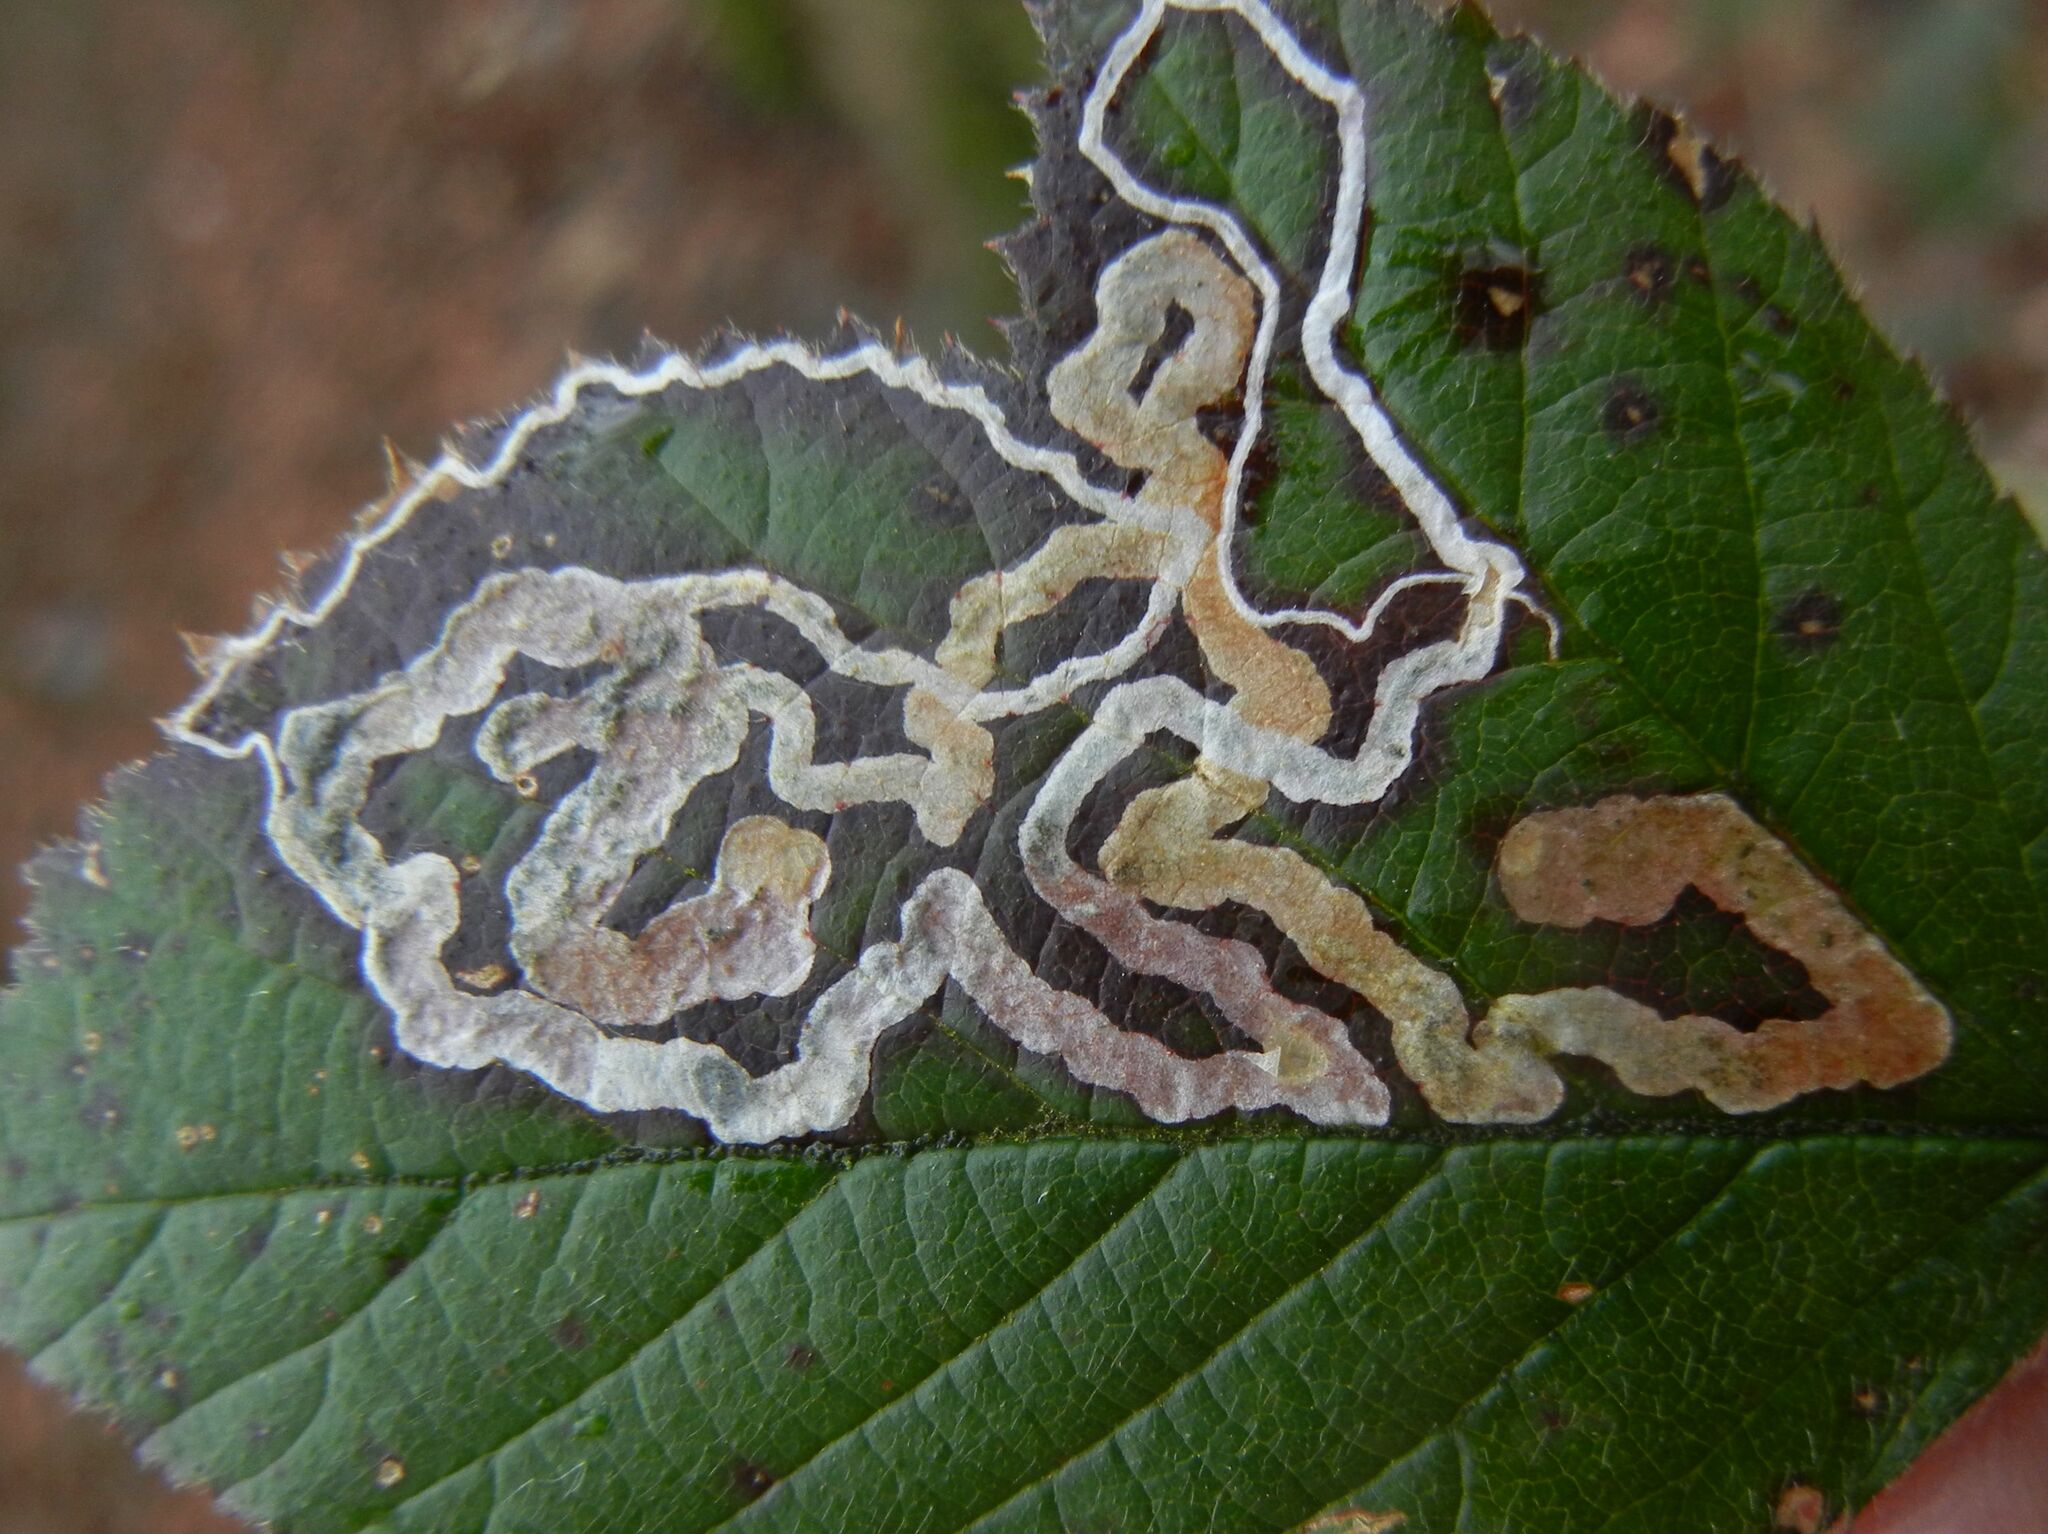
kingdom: Animalia
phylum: Arthropoda
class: Insecta
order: Lepidoptera
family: Nepticulidae
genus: Stigmella
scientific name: Stigmella aurella
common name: Golden pigmy
